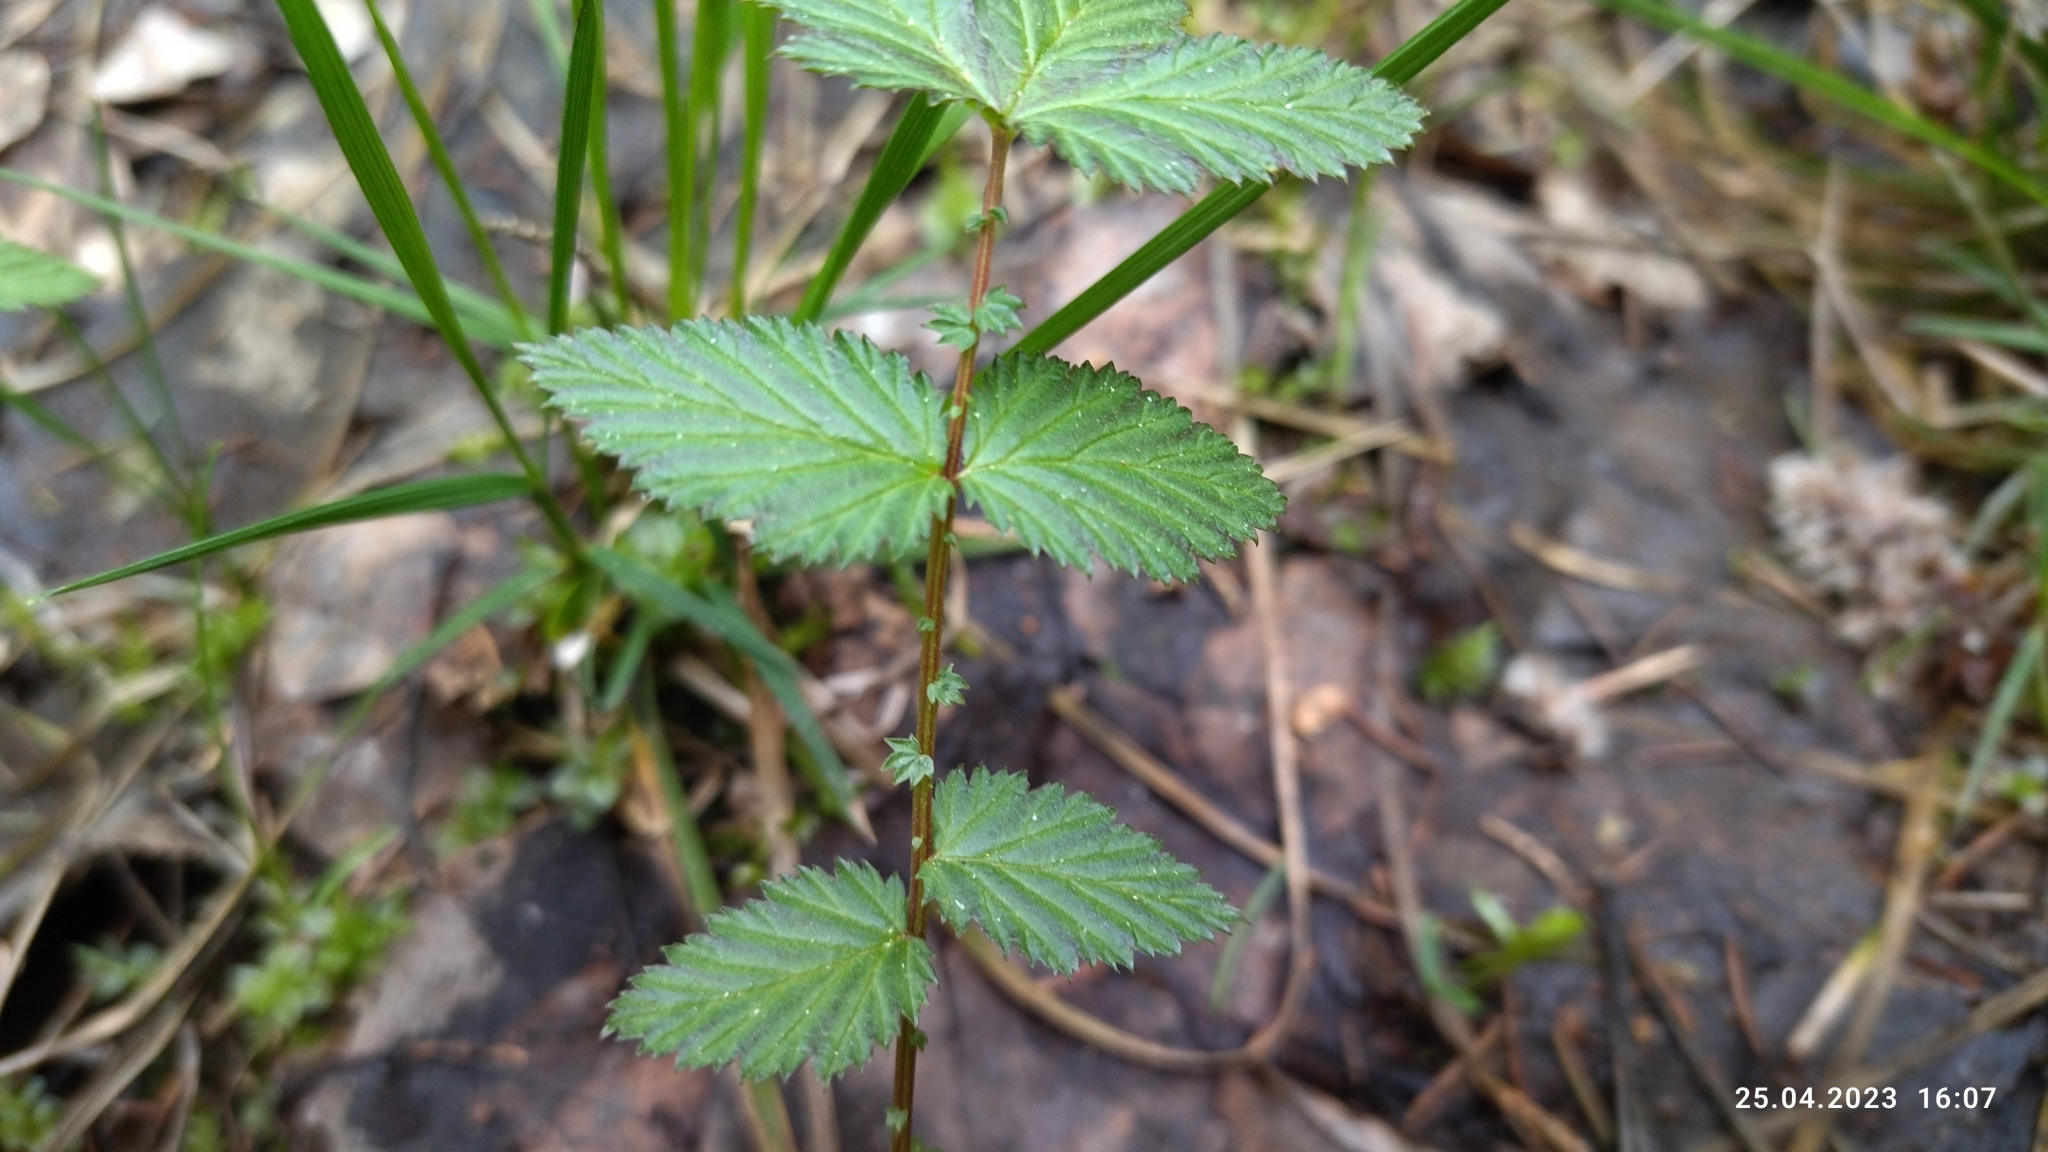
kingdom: Plantae
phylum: Tracheophyta
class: Magnoliopsida
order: Rosales
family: Rosaceae
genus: Filipendula
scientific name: Filipendula ulmaria
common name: Meadowsweet
